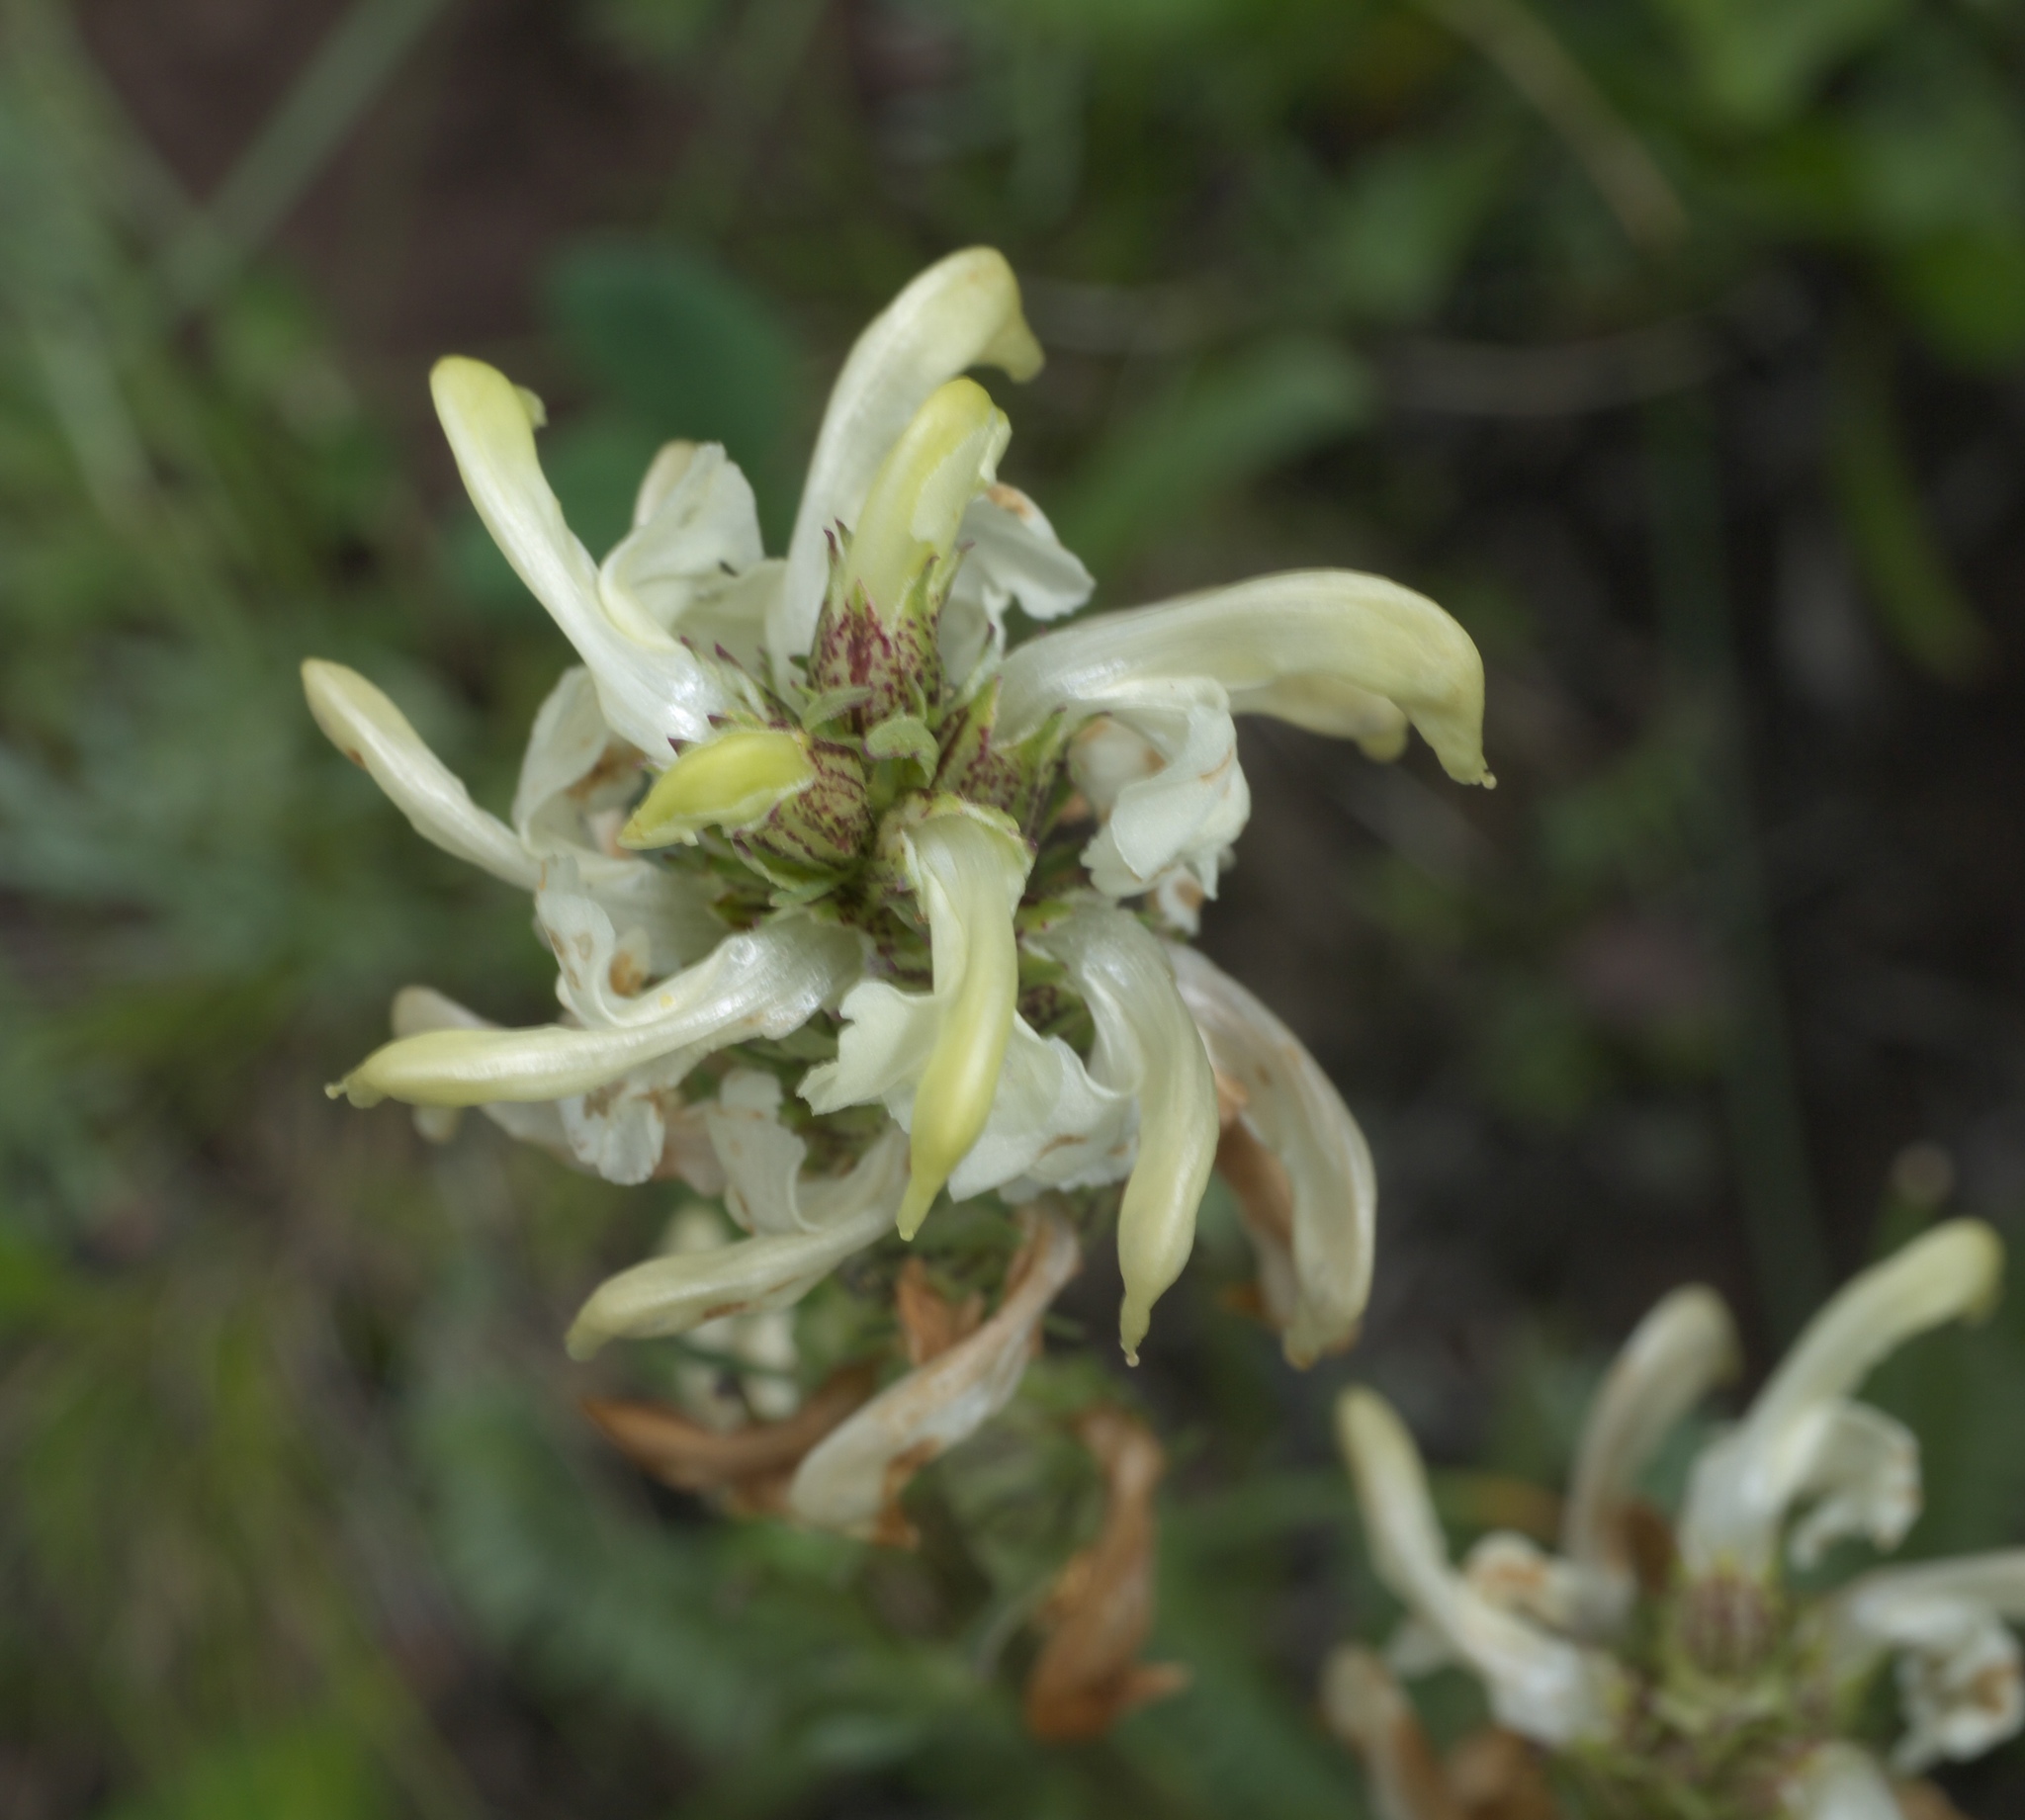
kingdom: Plantae
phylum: Tracheophyta
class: Magnoliopsida
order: Lamiales
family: Orobanchaceae
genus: Pedicularis
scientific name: Pedicularis parryi
